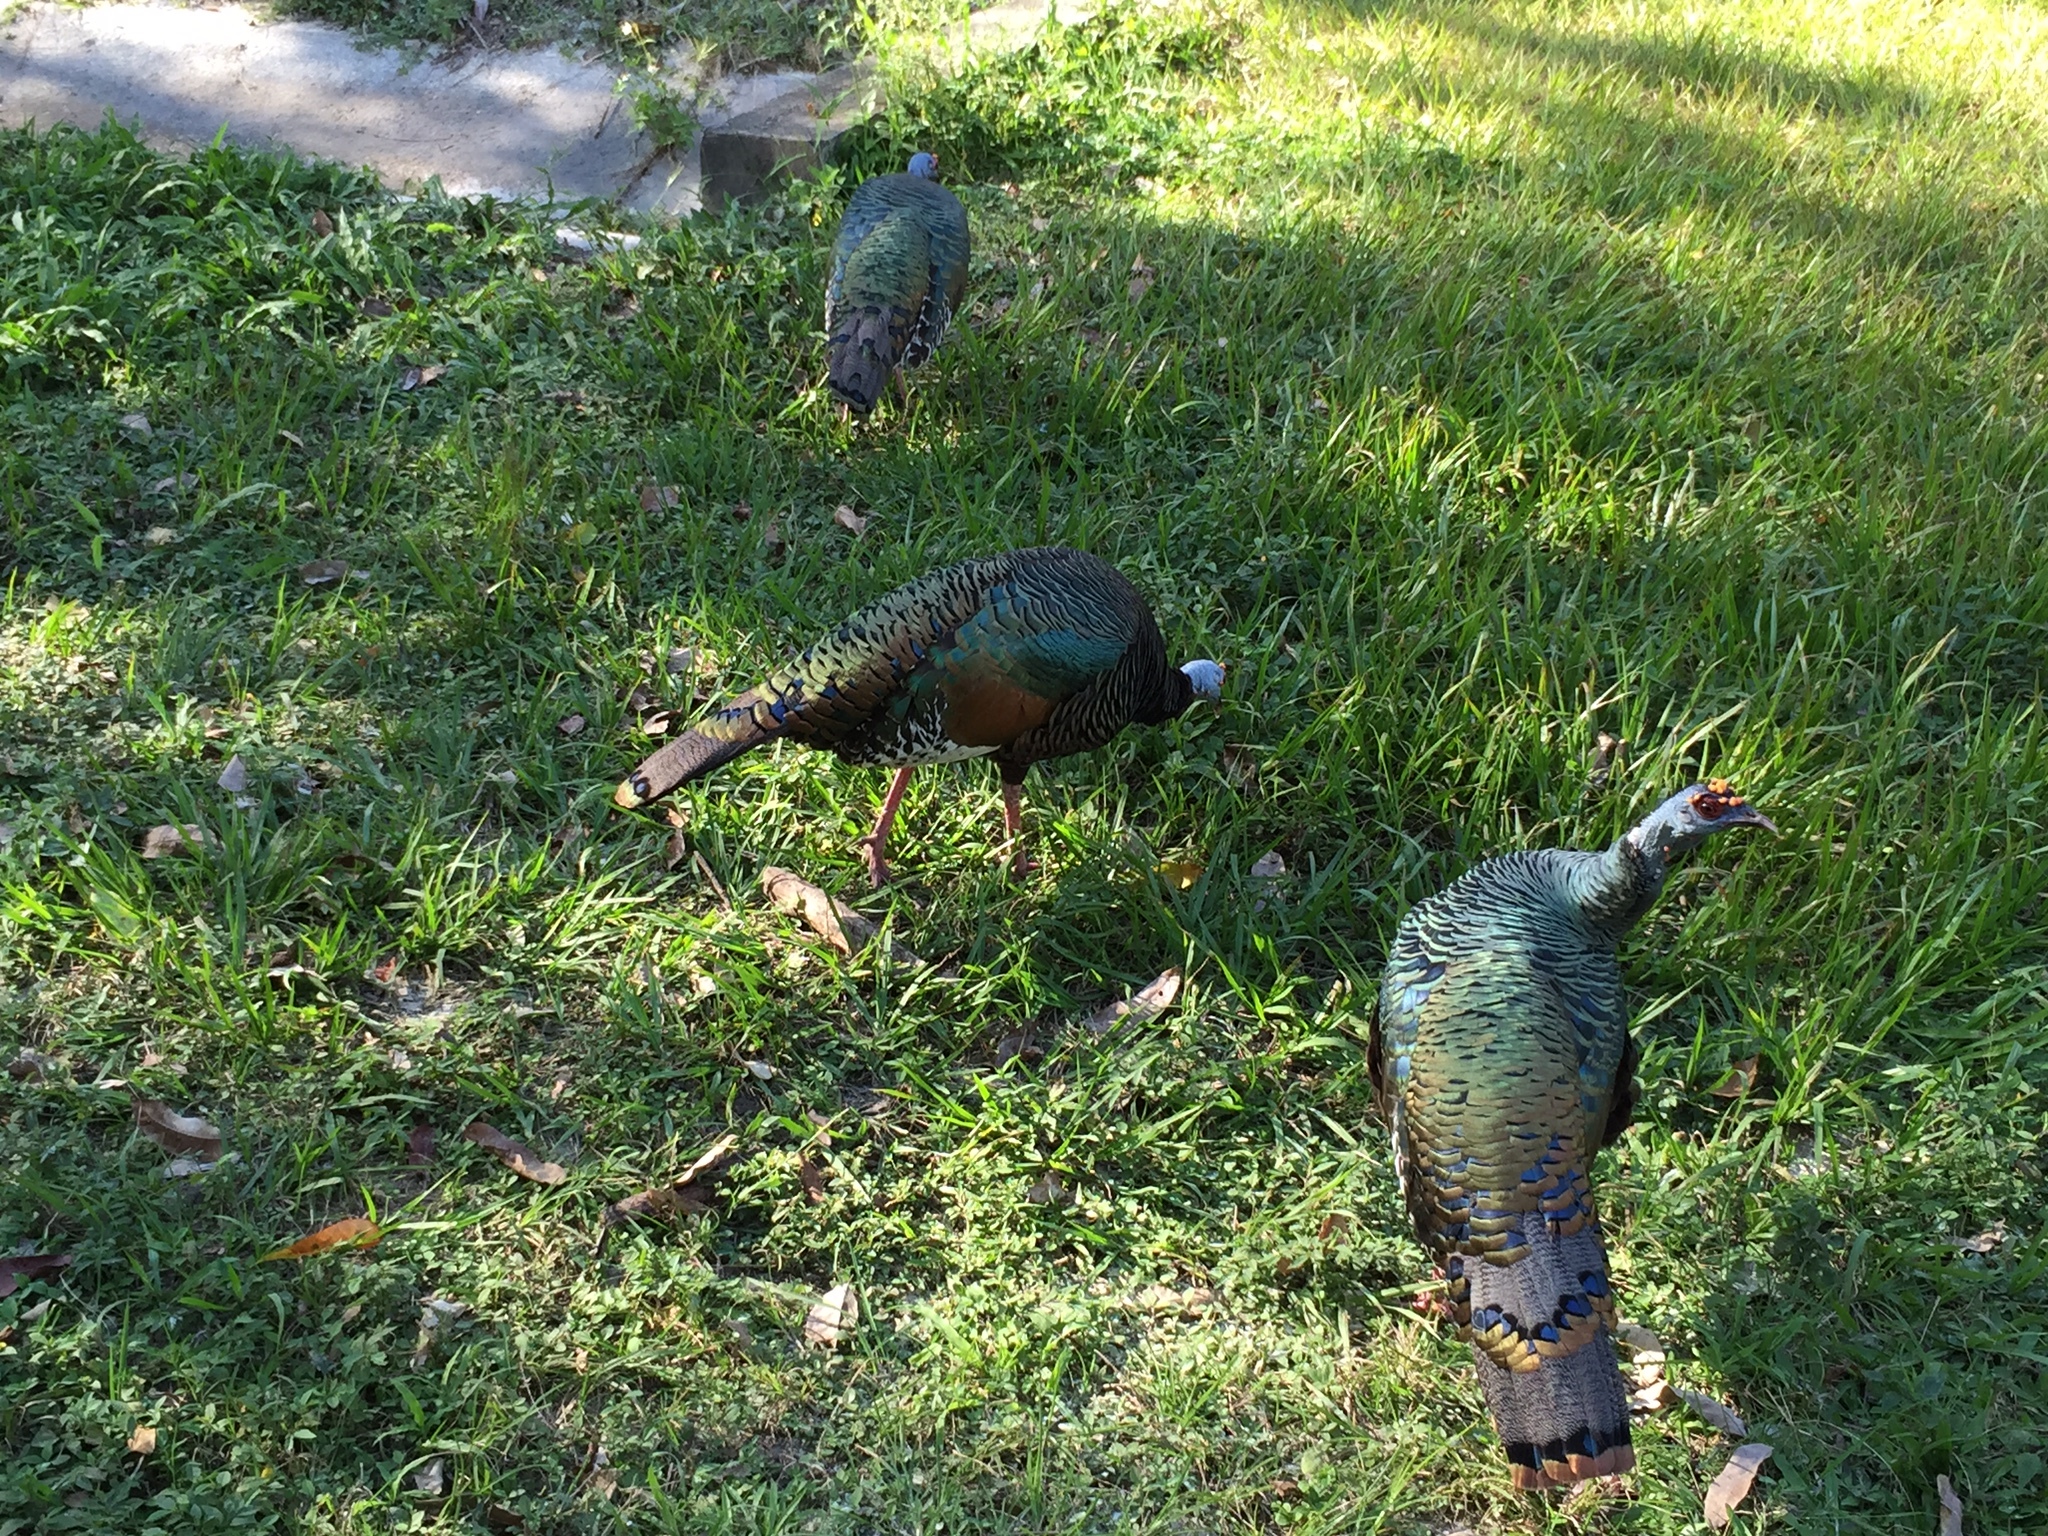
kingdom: Animalia
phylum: Chordata
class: Aves
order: Galliformes
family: Phasianidae
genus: Meleagris
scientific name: Meleagris ocellata
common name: Ocellated turkey
